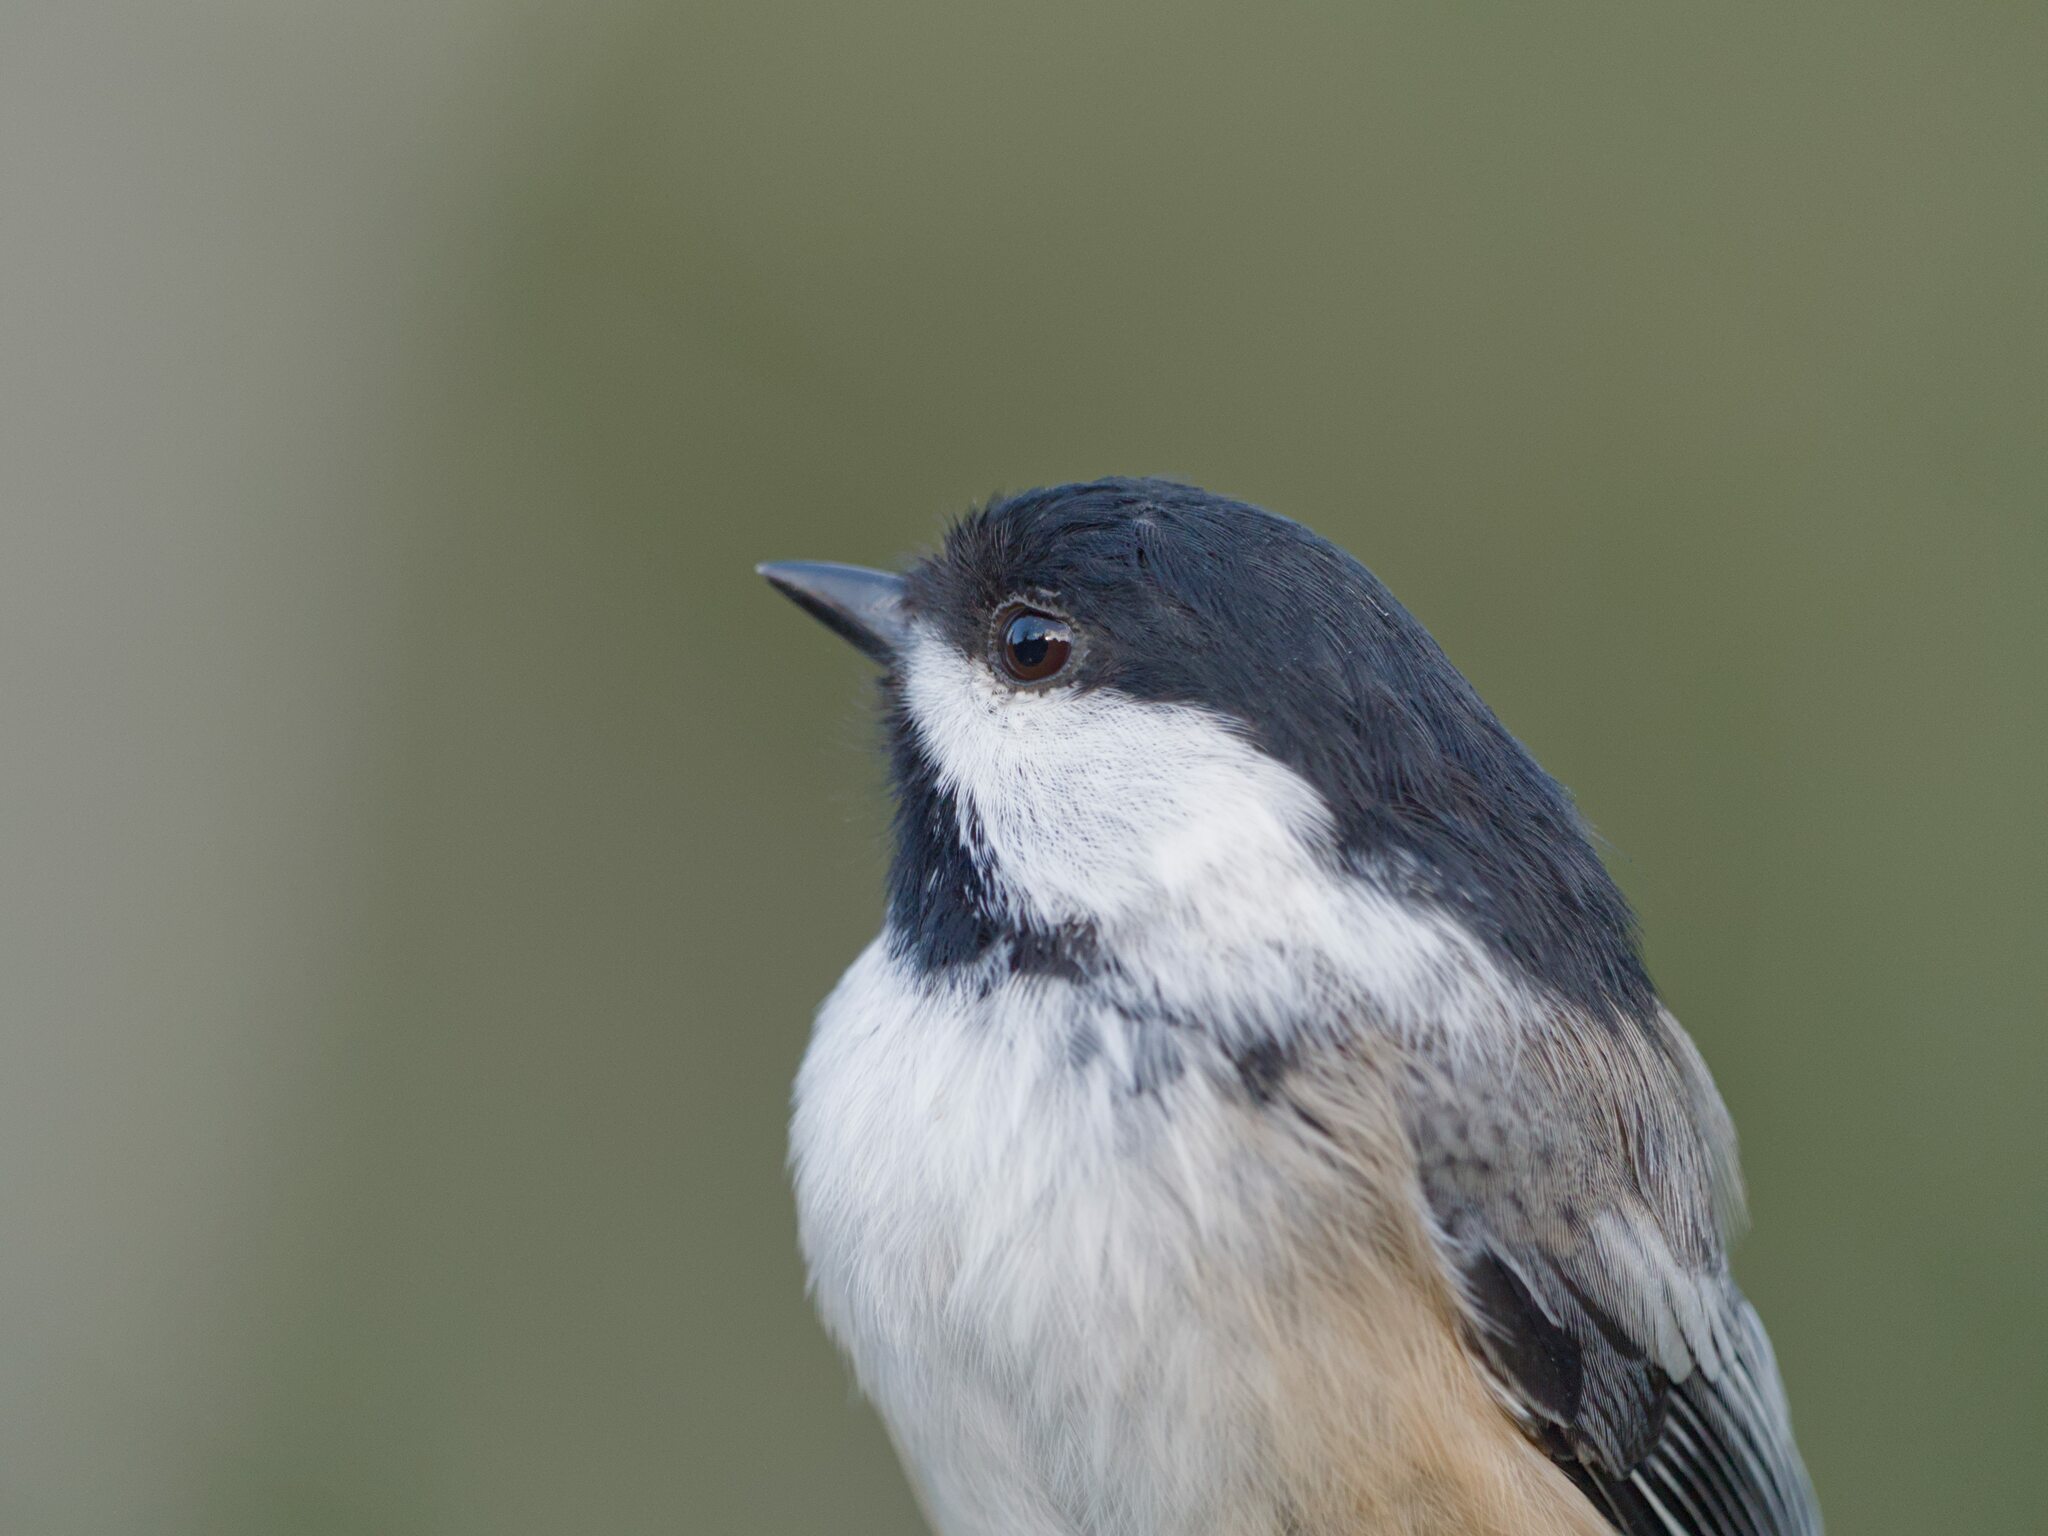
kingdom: Animalia
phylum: Chordata
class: Aves
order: Passeriformes
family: Paridae
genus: Poecile
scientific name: Poecile atricapillus
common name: Black-capped chickadee
